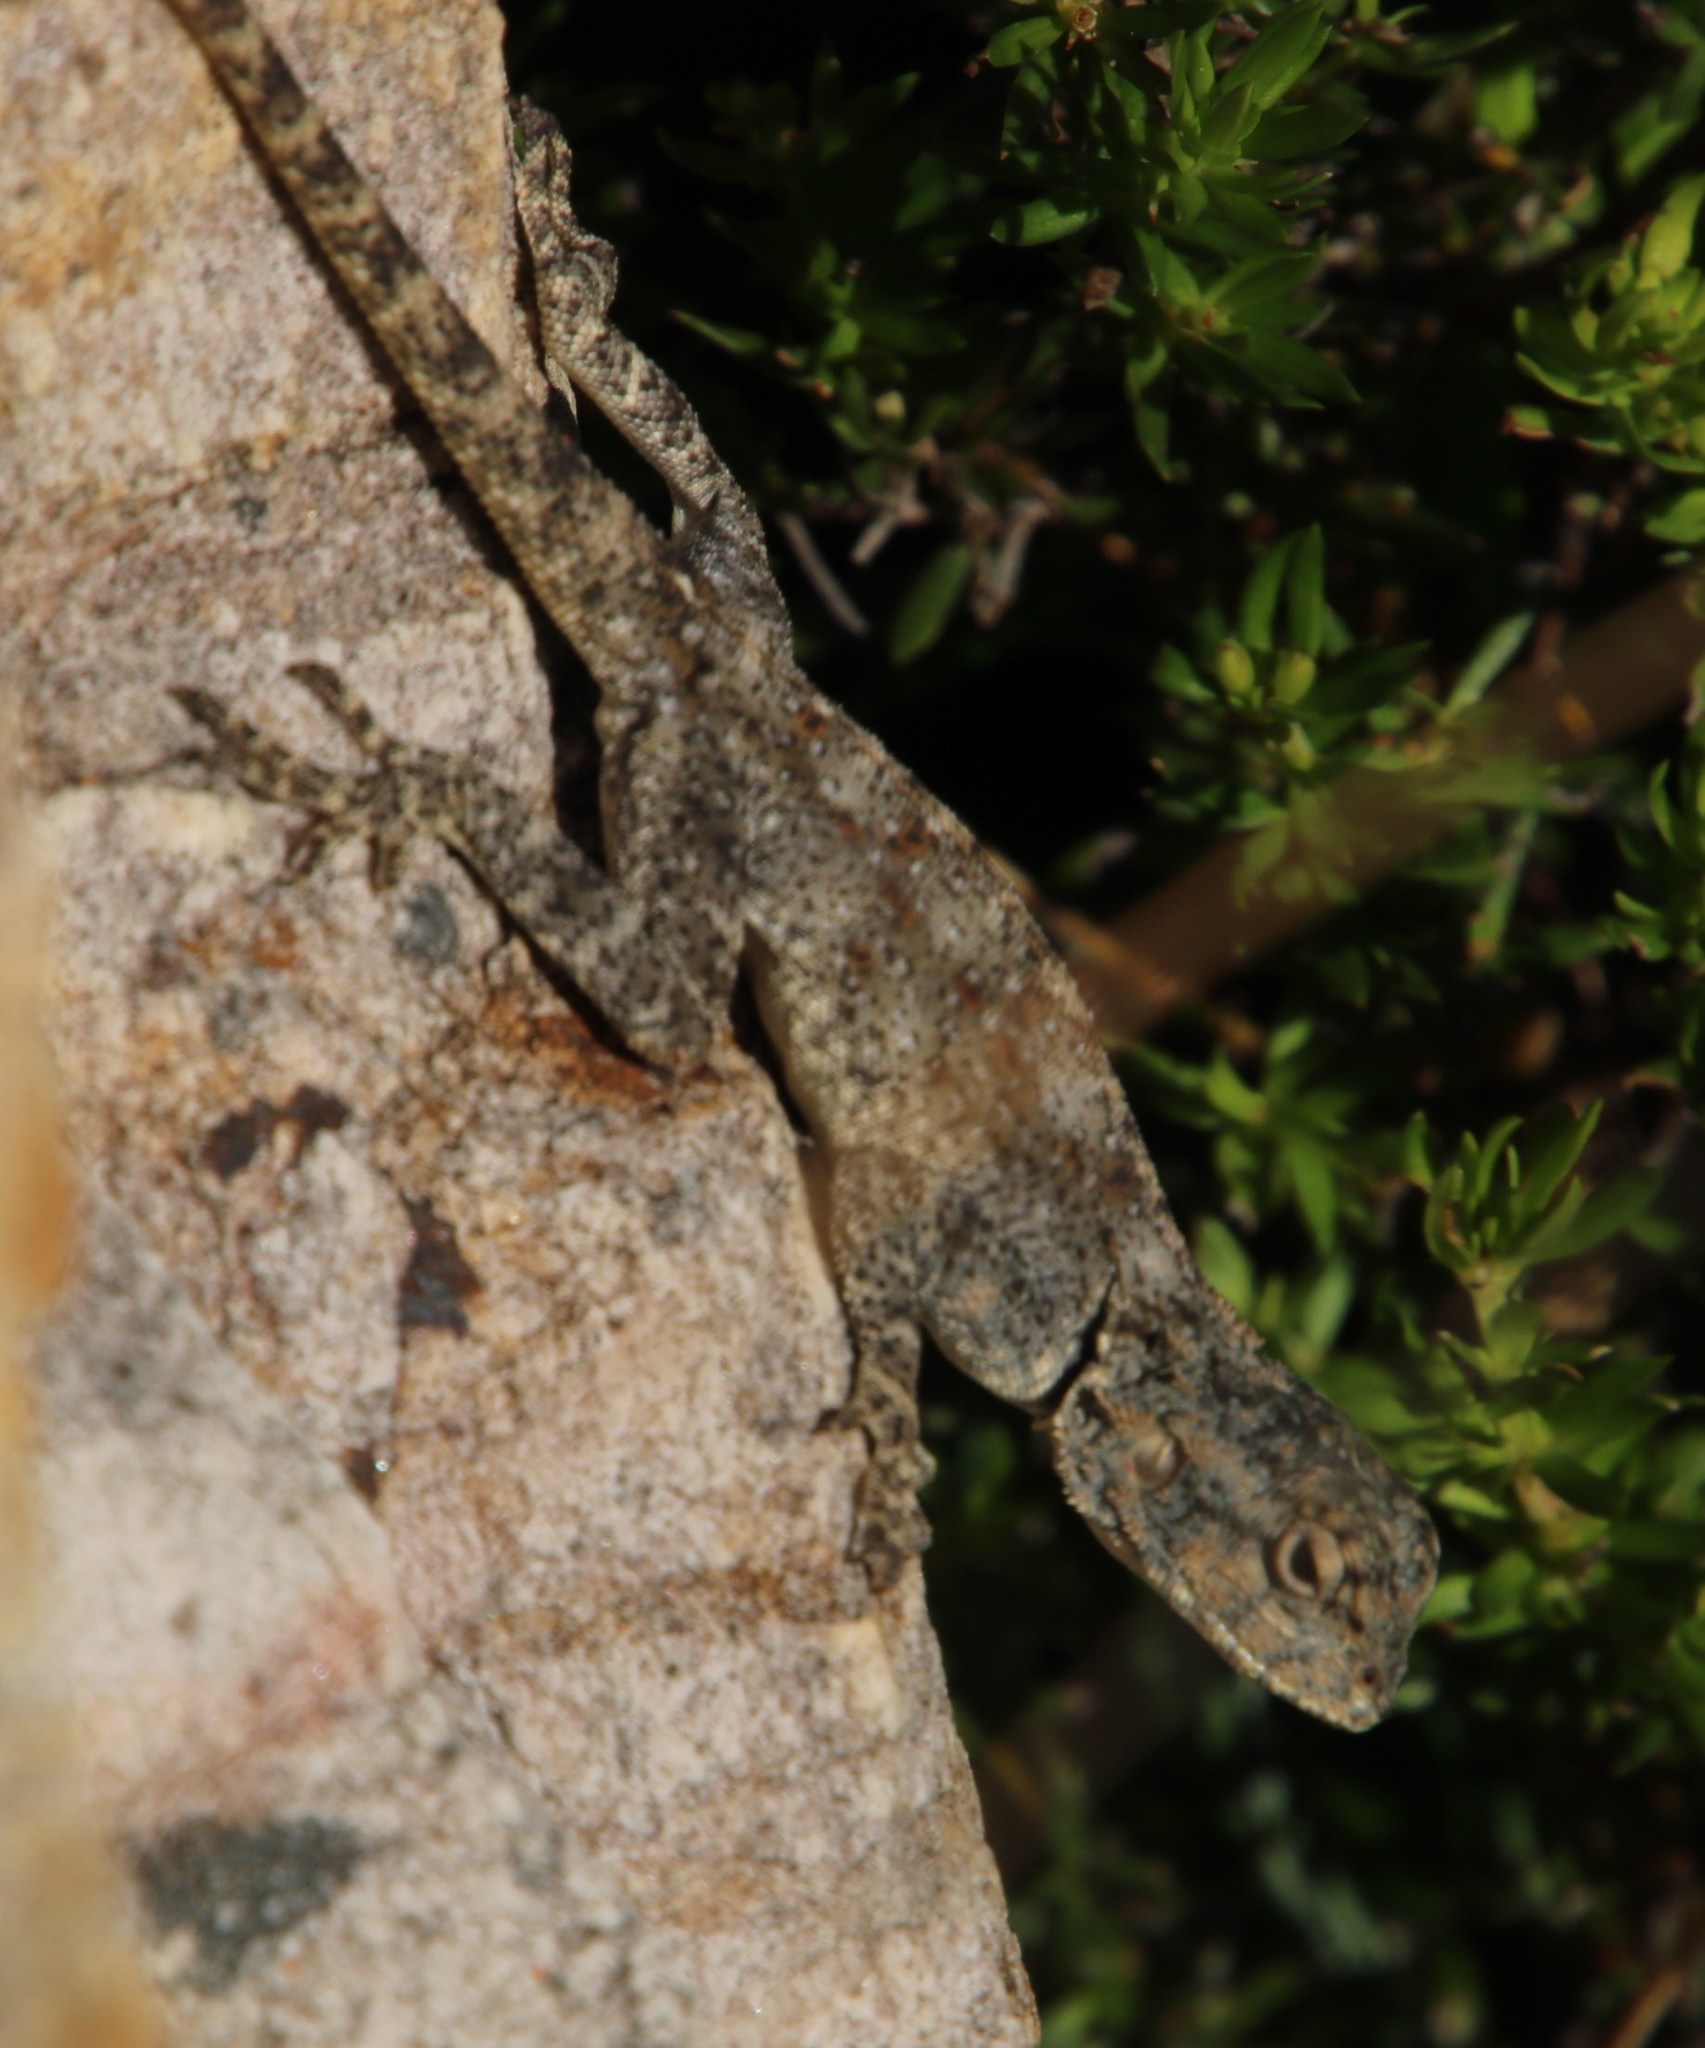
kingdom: Animalia
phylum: Chordata
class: Squamata
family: Agamidae
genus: Agama
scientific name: Agama atra
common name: Southern african rock agama
